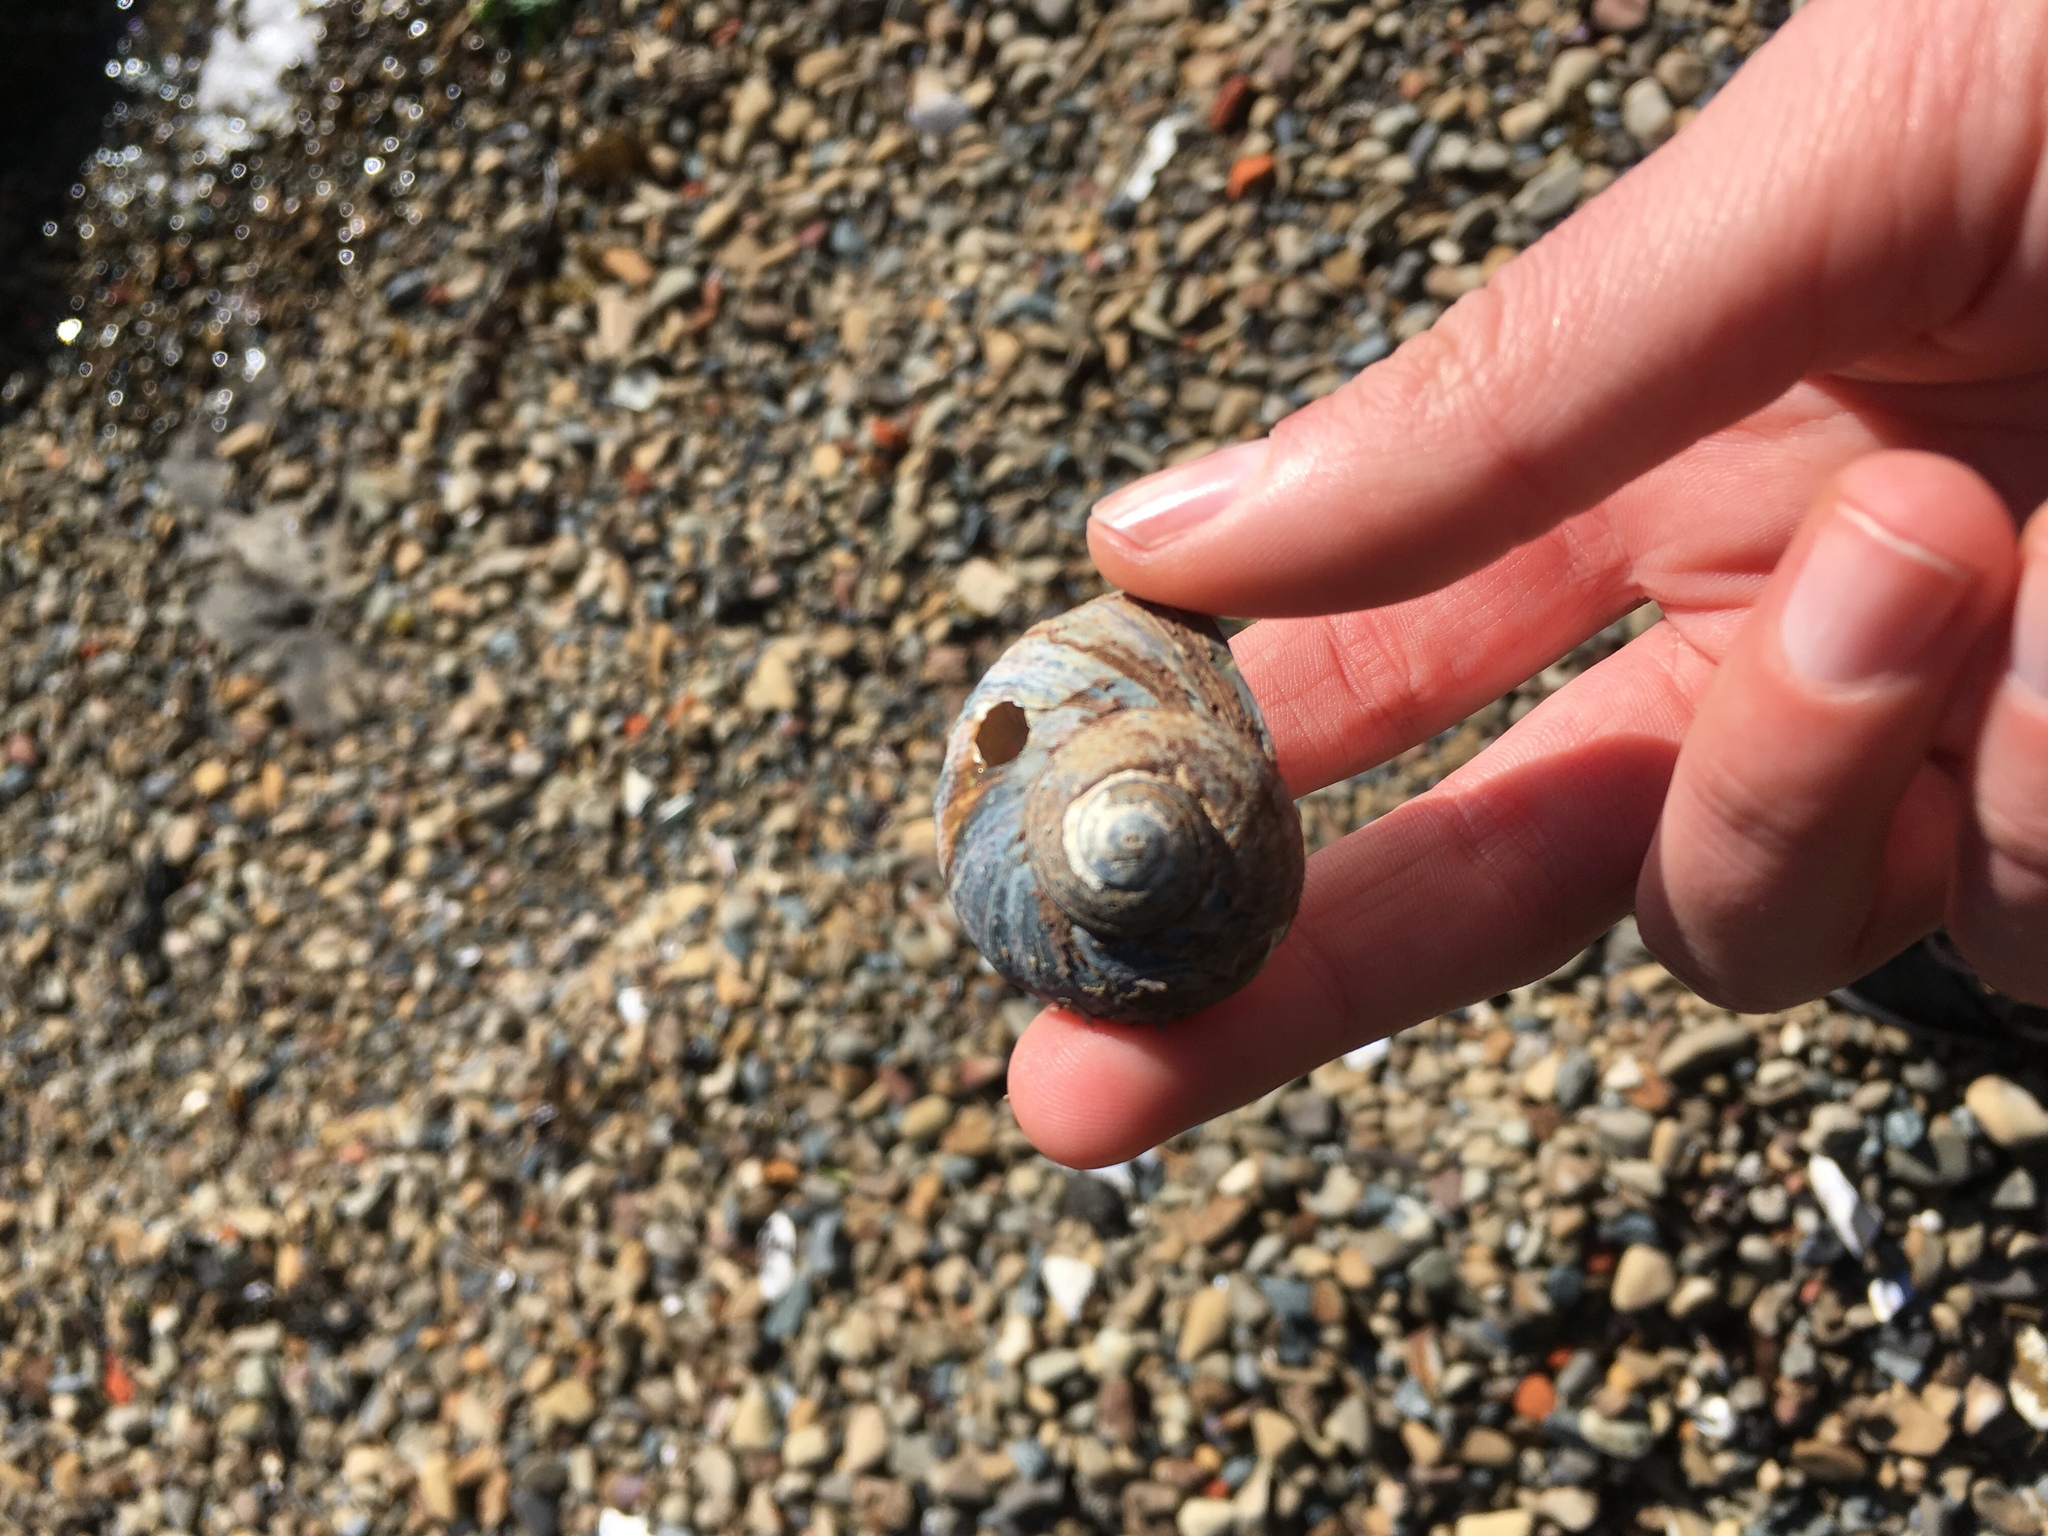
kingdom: Animalia
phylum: Mollusca
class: Gastropoda
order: Trochida
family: Turbinidae
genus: Lunella
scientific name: Lunella smaragda
